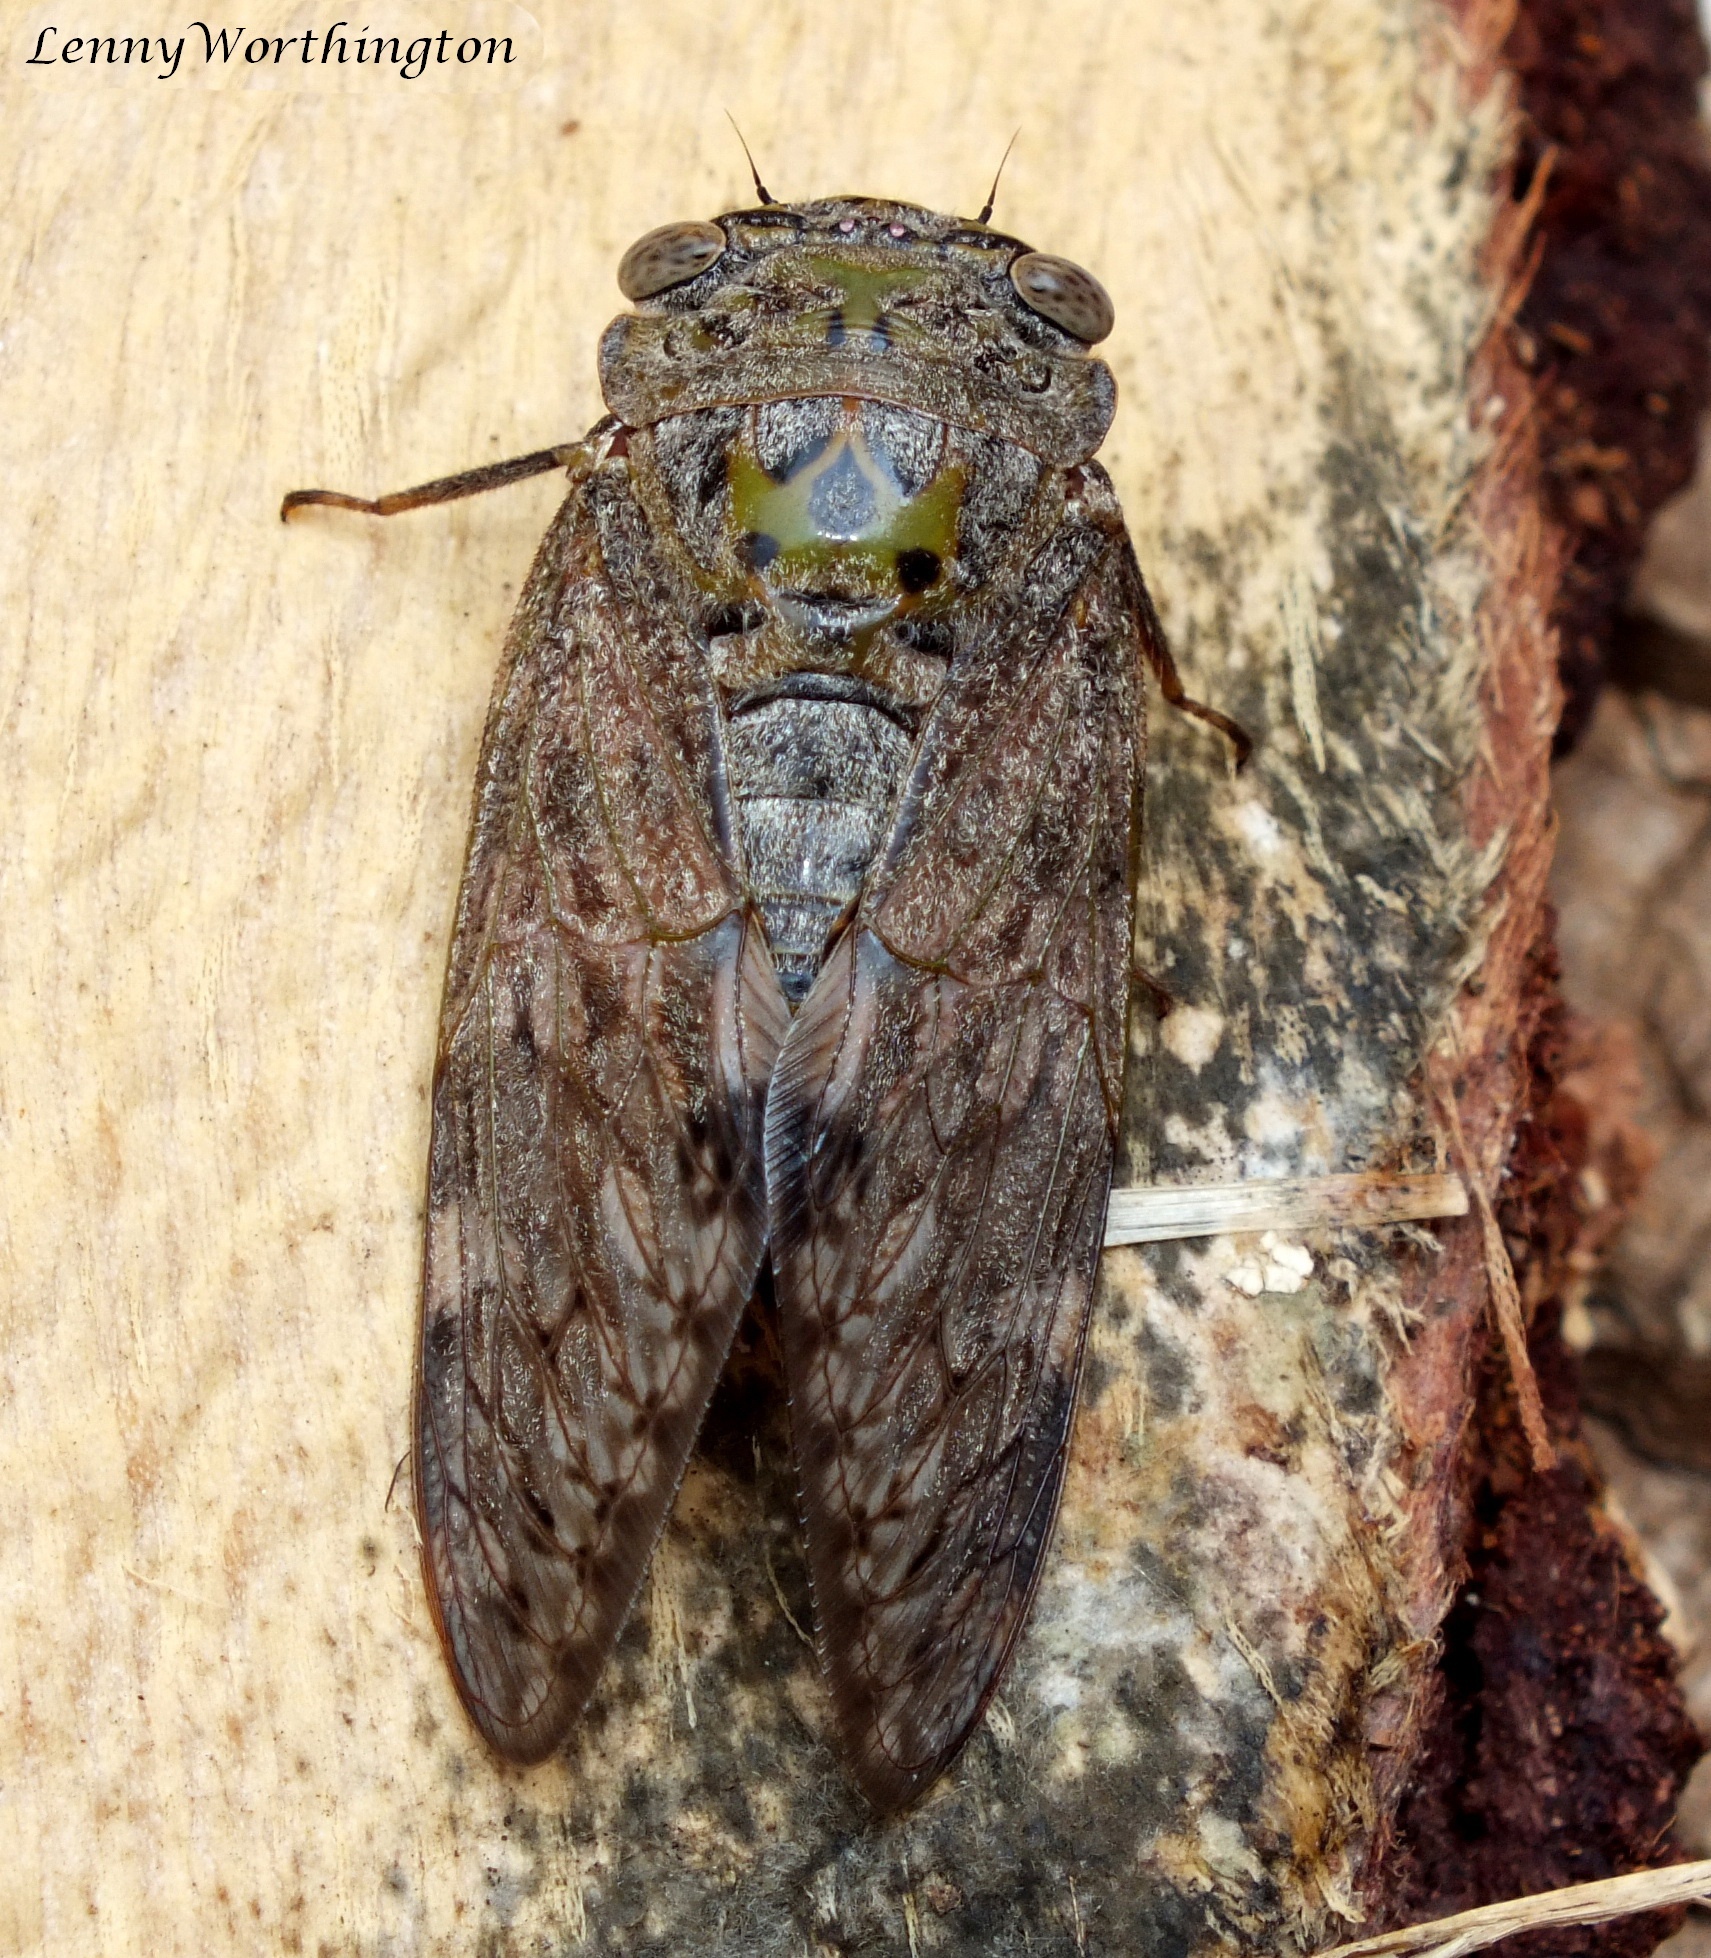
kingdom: Animalia
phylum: Arthropoda
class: Insecta
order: Hemiptera
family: Cicadidae
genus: Platypleura
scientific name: Platypleura mira
